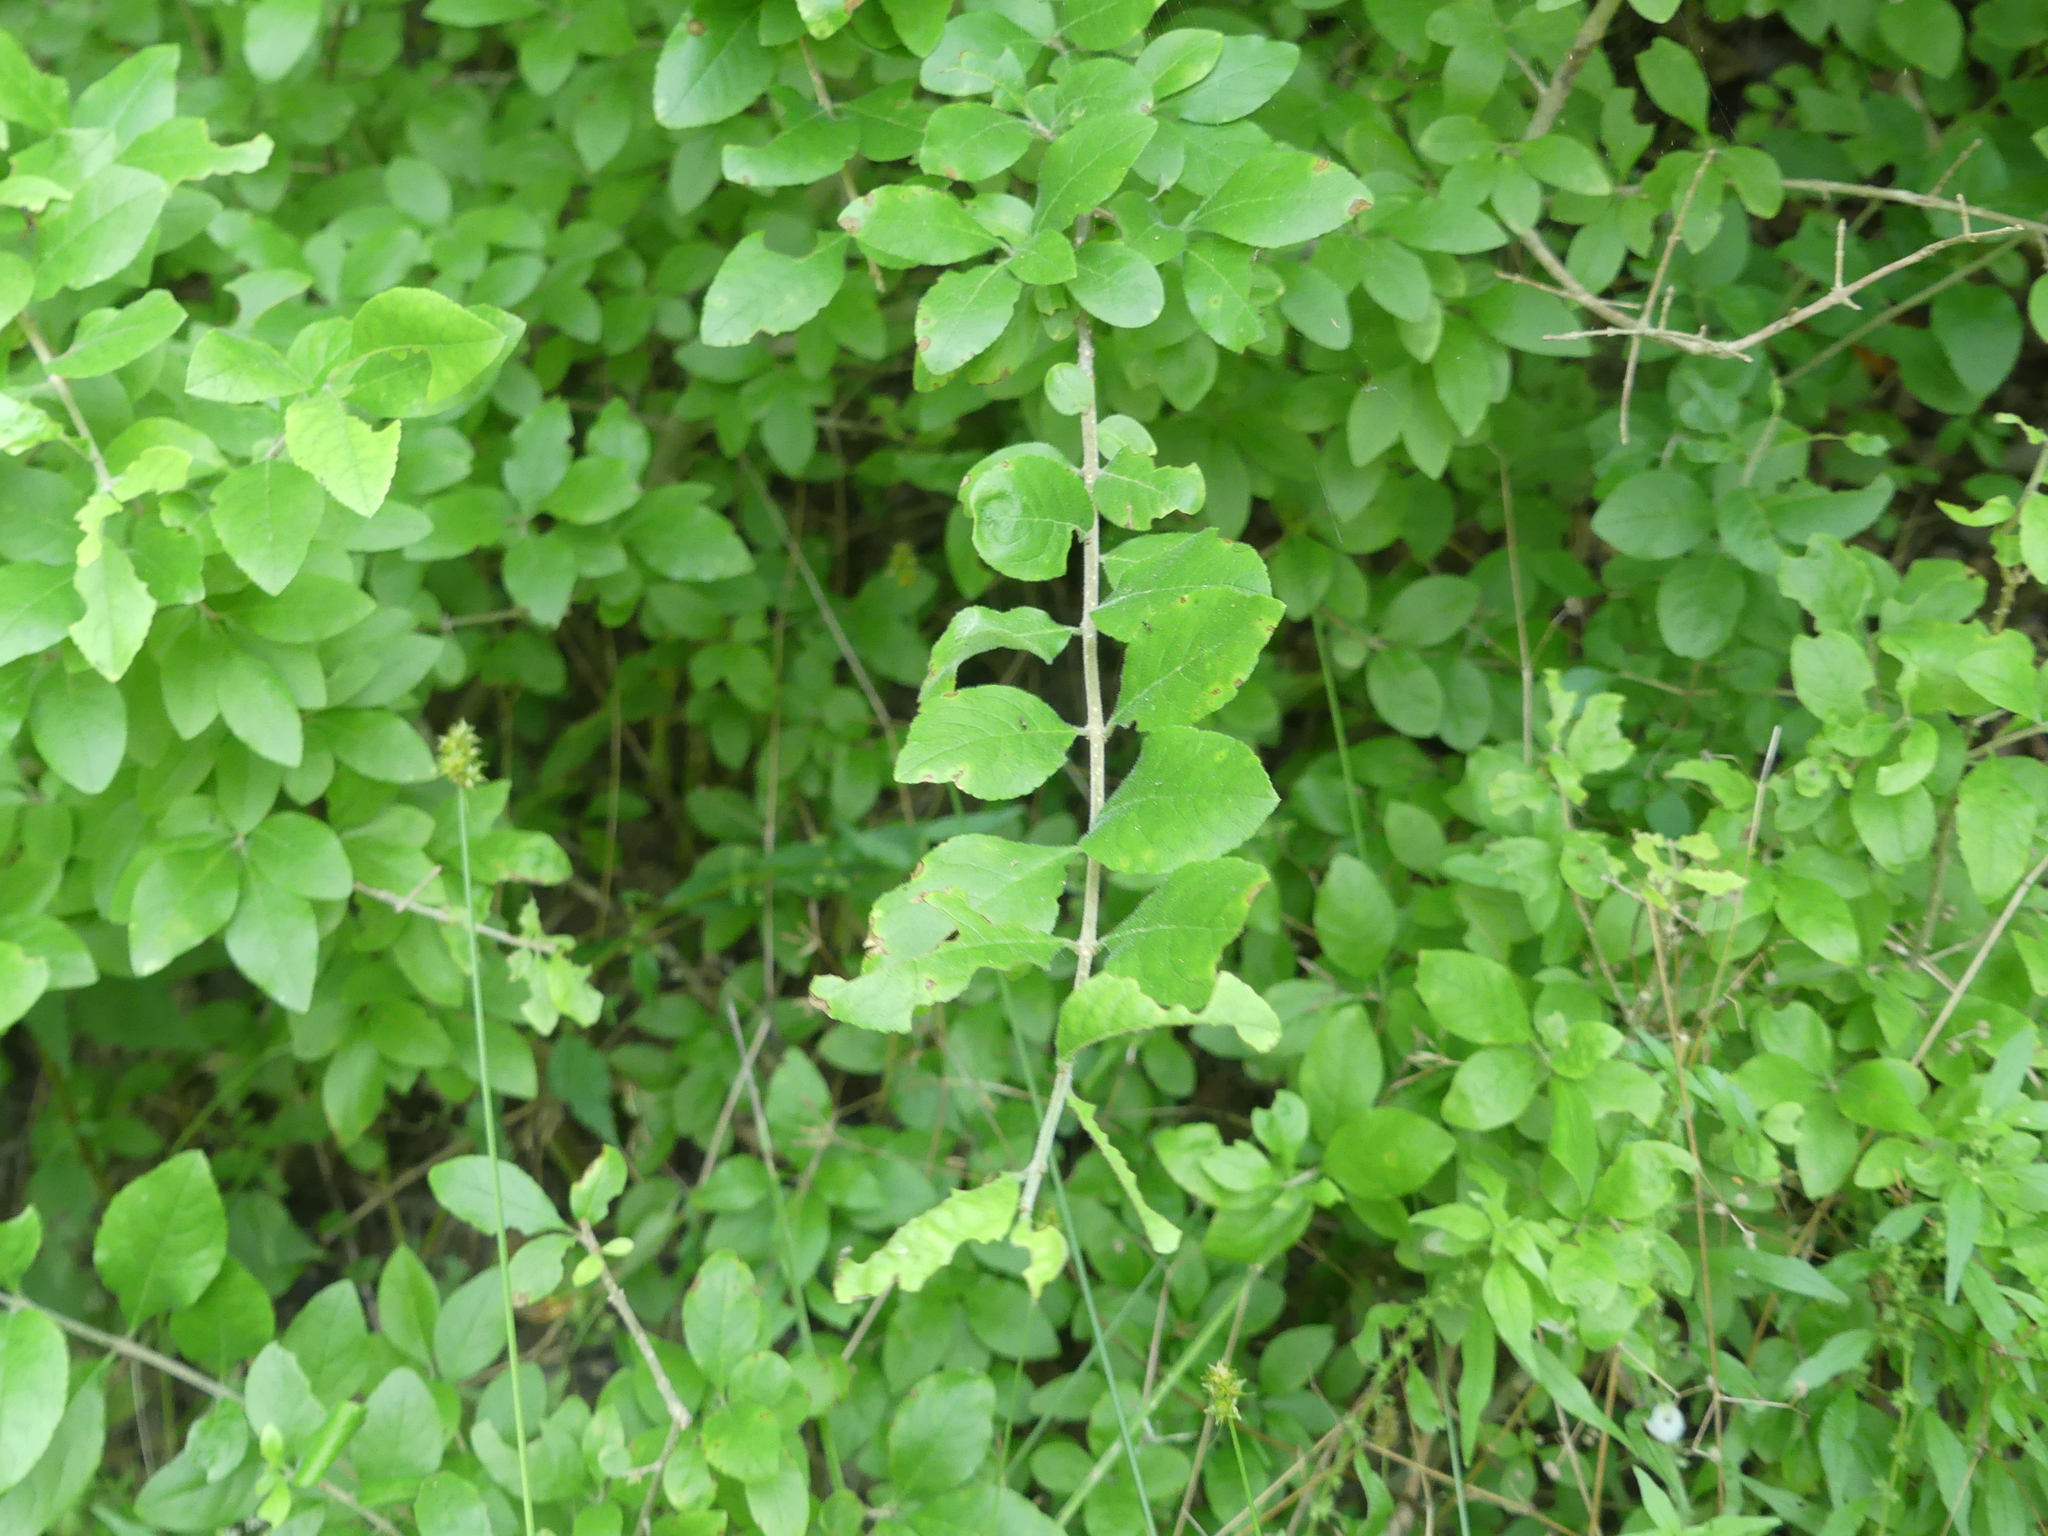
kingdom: Plantae
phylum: Tracheophyta
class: Magnoliopsida
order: Lamiales
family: Oleaceae
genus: Forestiera
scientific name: Forestiera pubescens
